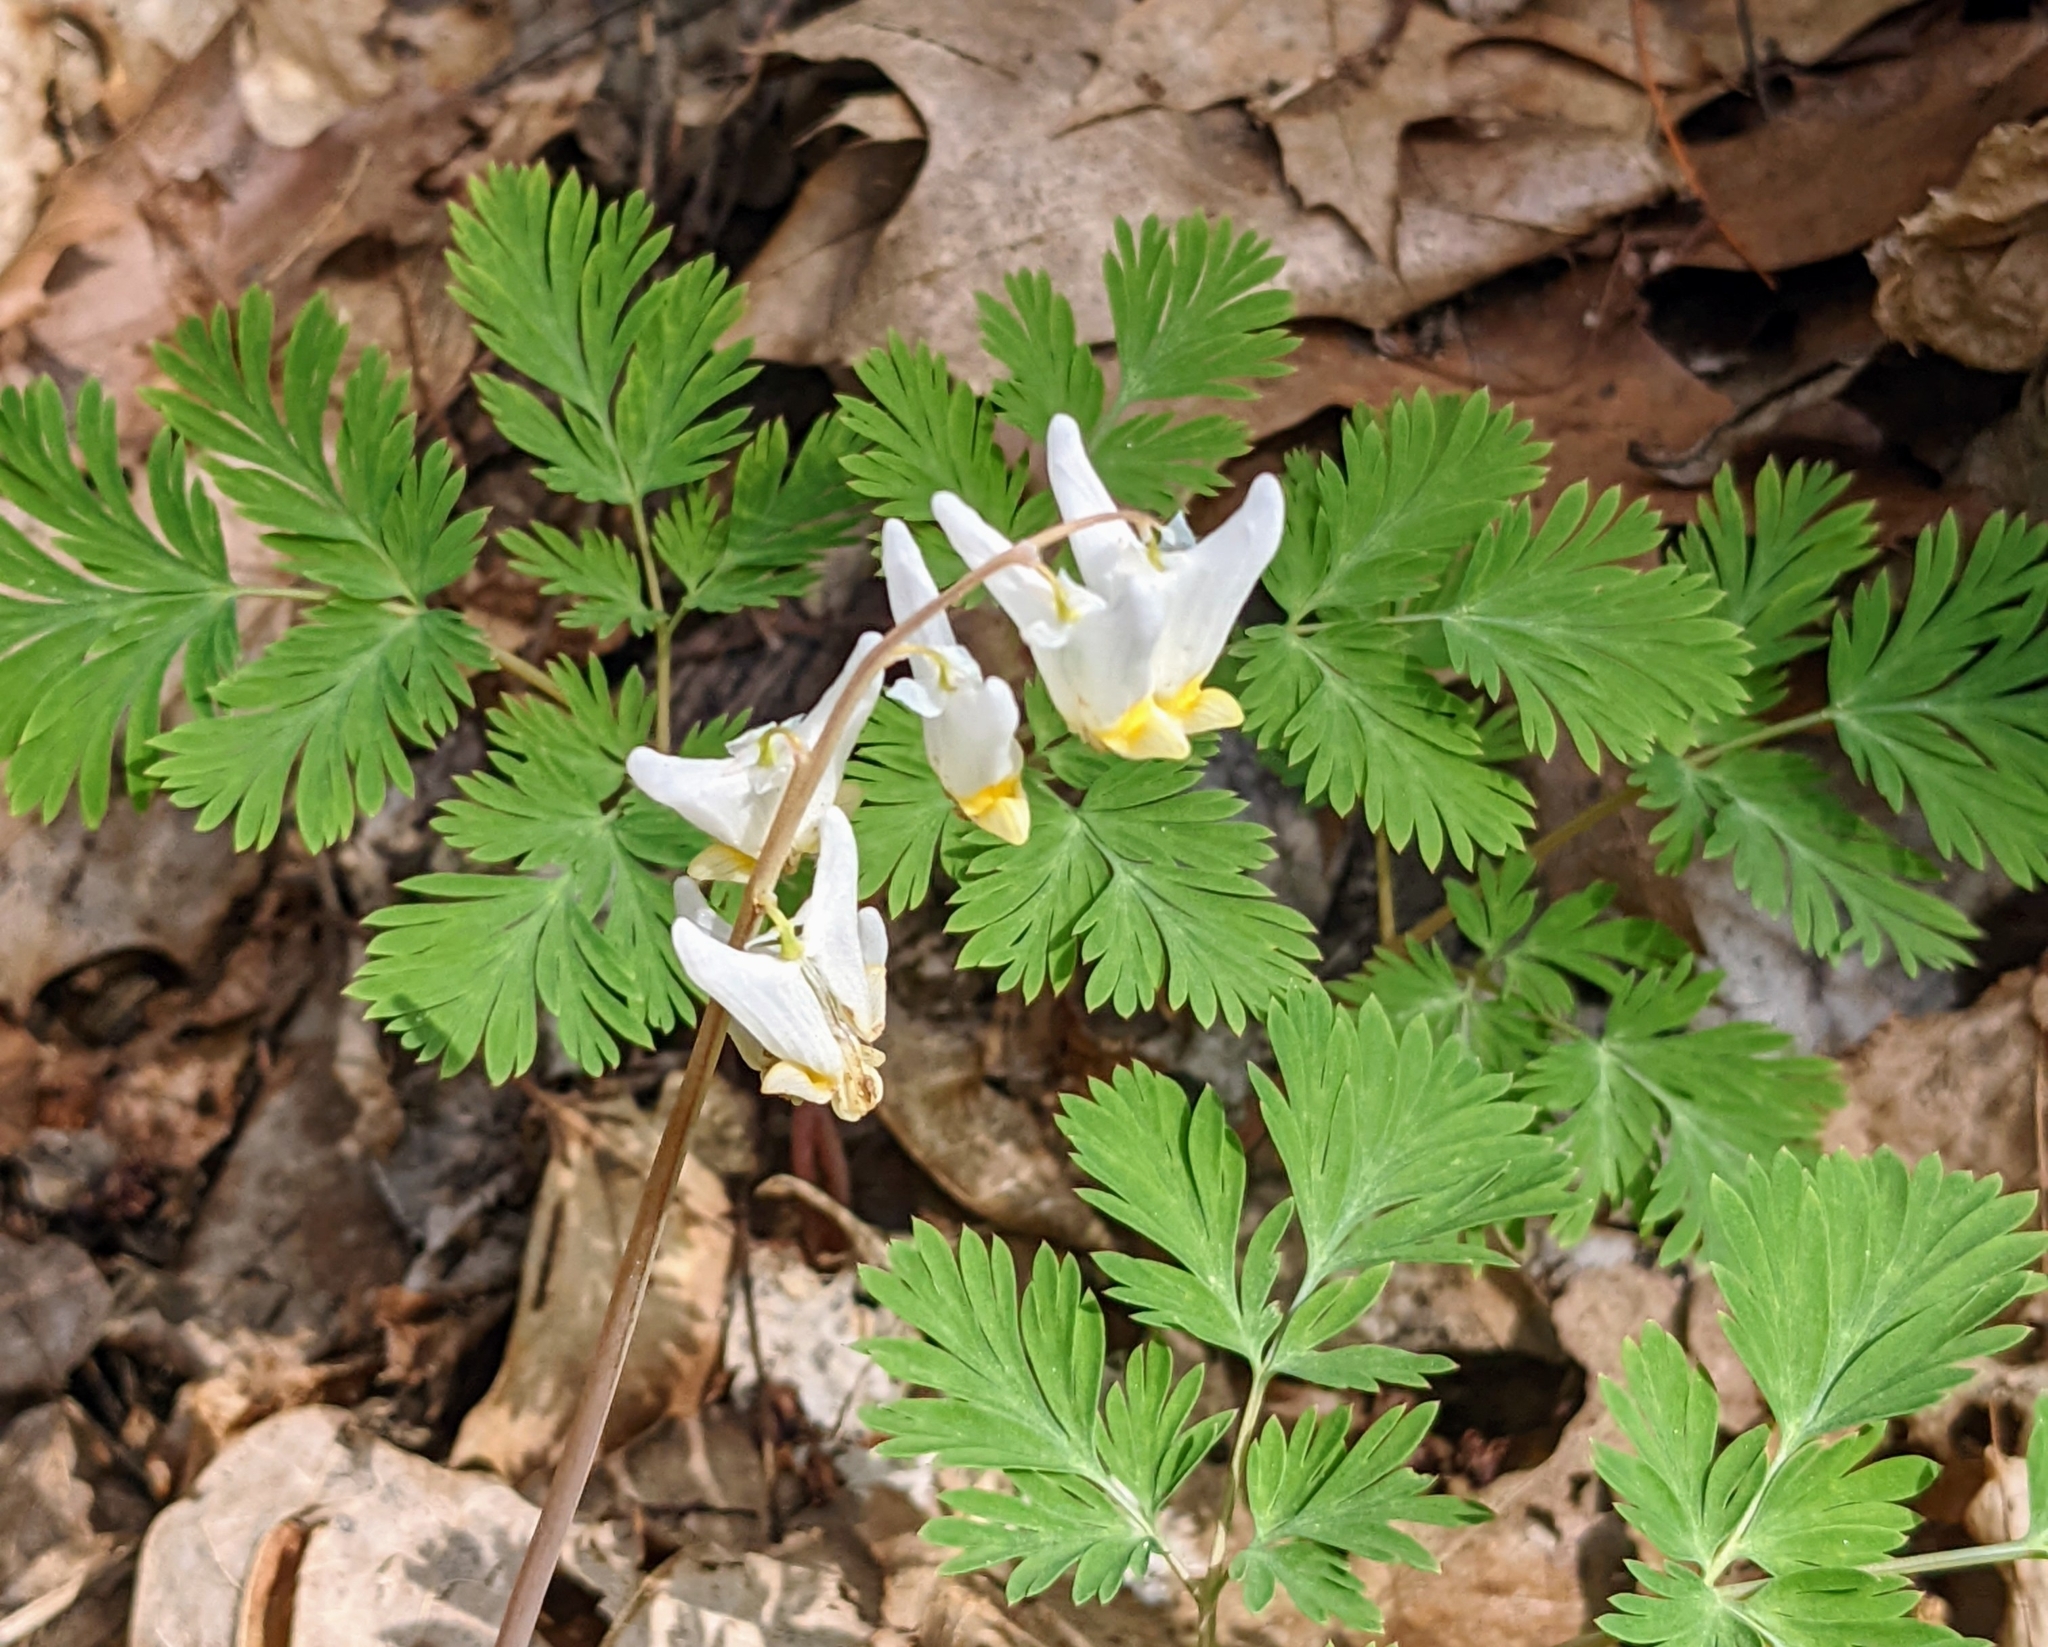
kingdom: Plantae
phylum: Tracheophyta
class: Magnoliopsida
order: Ranunculales
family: Papaveraceae
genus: Dicentra
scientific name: Dicentra cucullaria
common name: Dutchman's breeches
